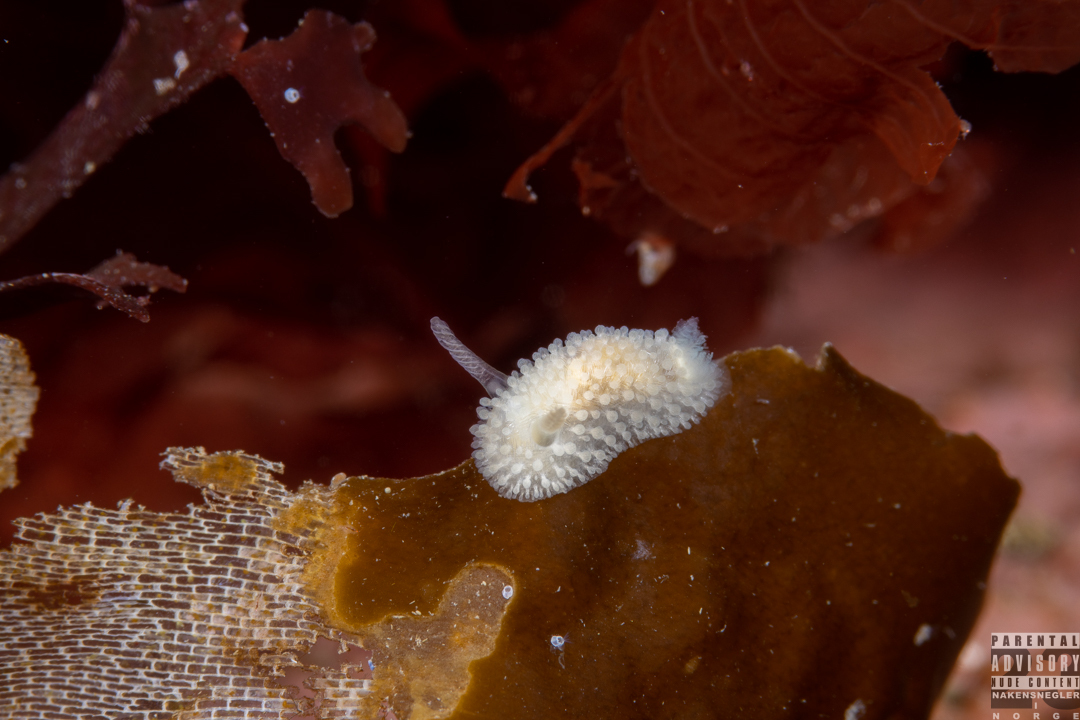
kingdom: Animalia
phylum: Mollusca
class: Gastropoda
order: Nudibranchia
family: Onchidorididae
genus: Onchidoris
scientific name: Onchidoris muricata
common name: Rough doris
